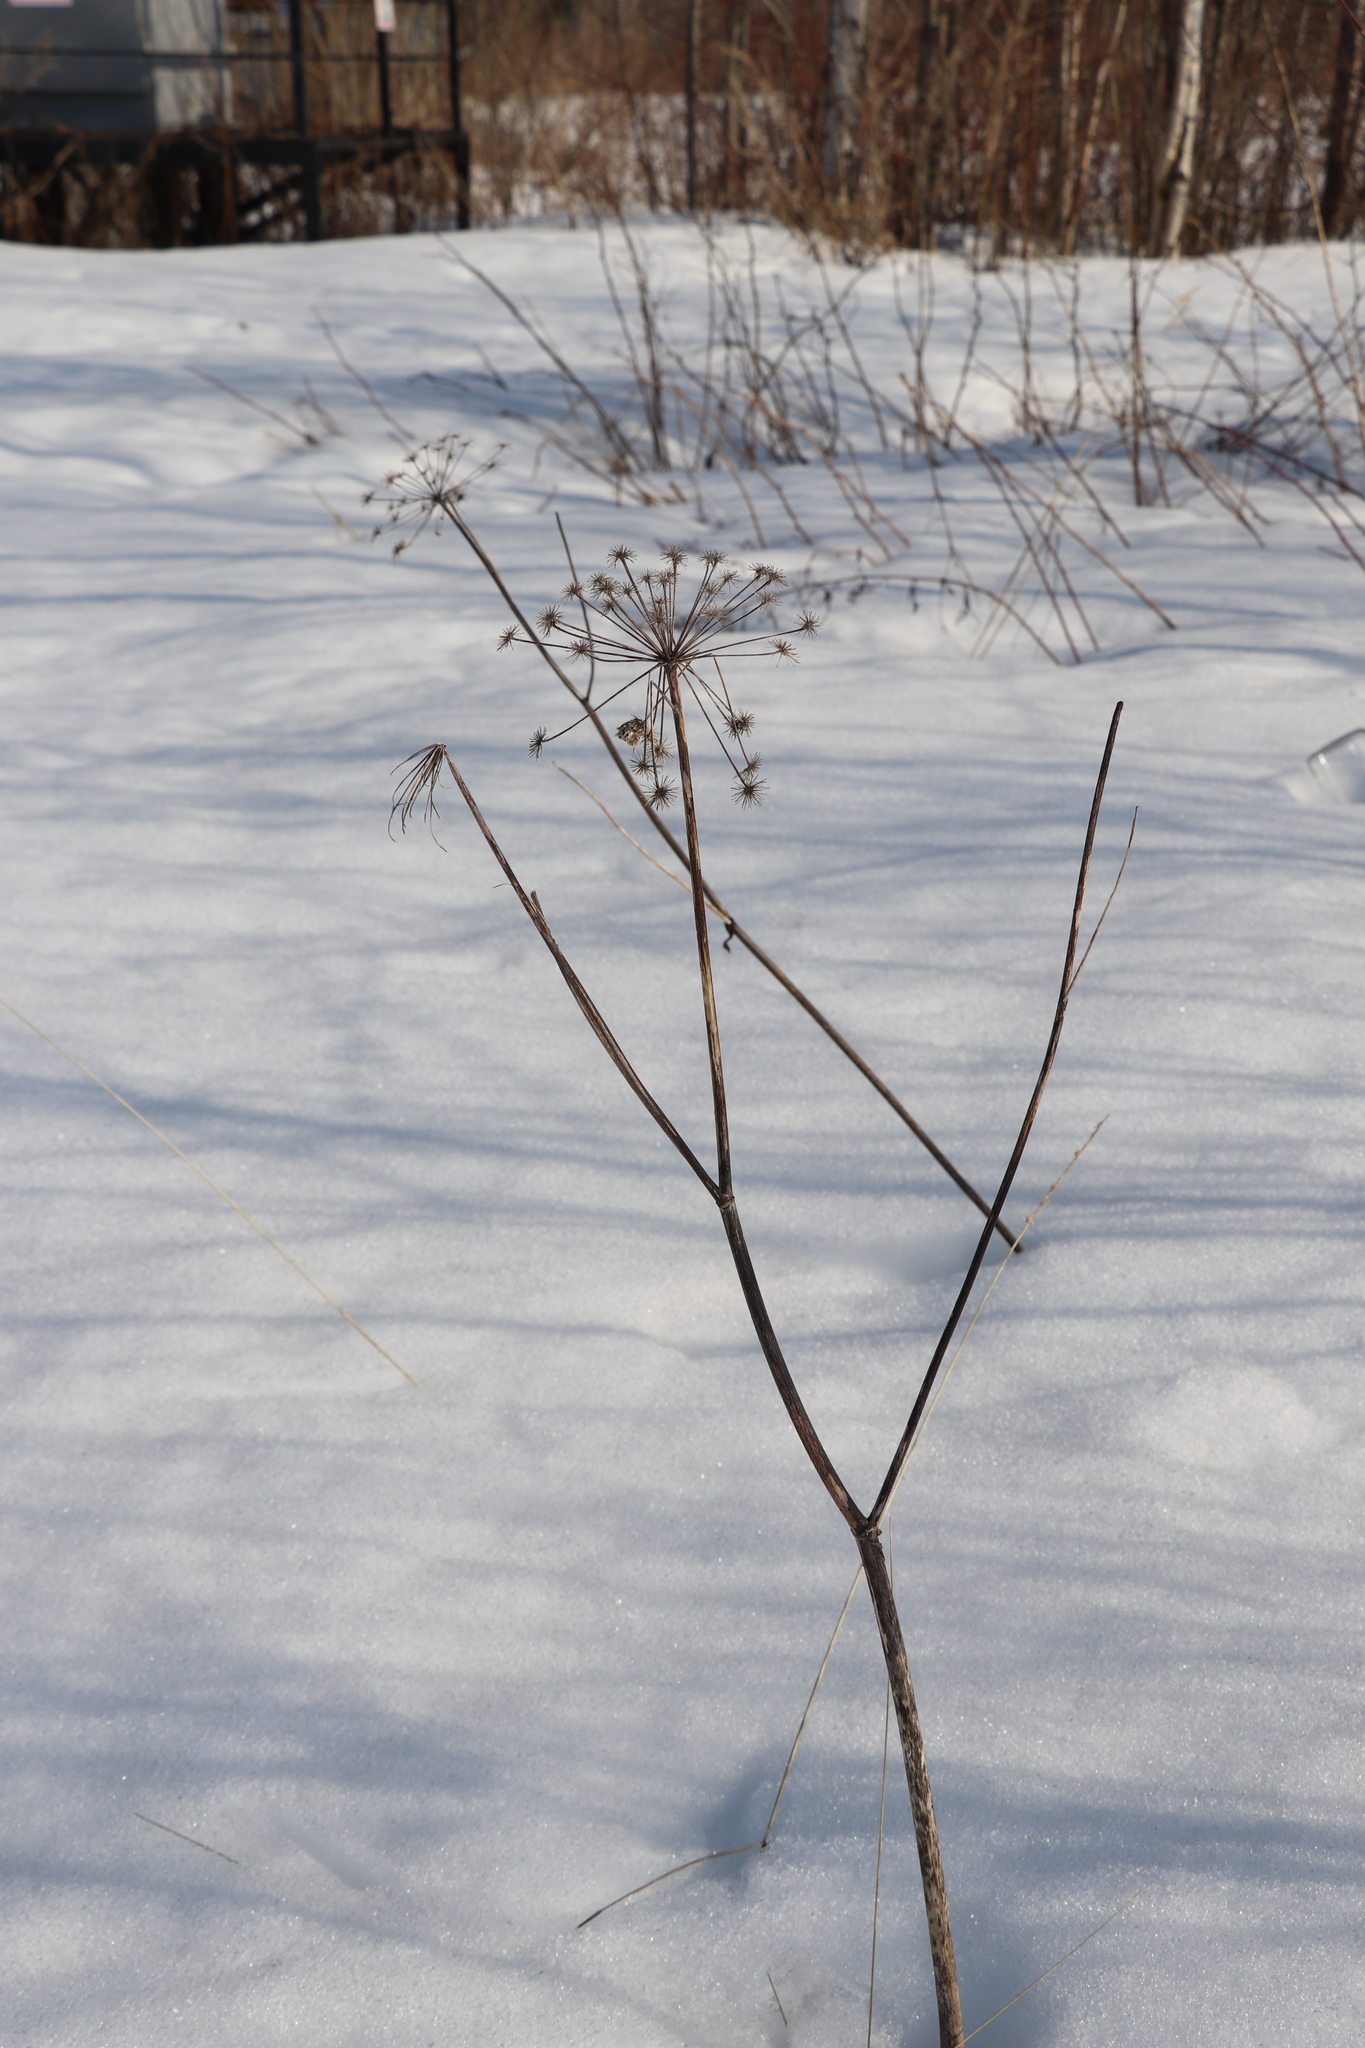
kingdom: Plantae
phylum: Tracheophyta
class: Magnoliopsida
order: Apiales
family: Apiaceae
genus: Angelica
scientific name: Angelica sylvestris
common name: Wild angelica
